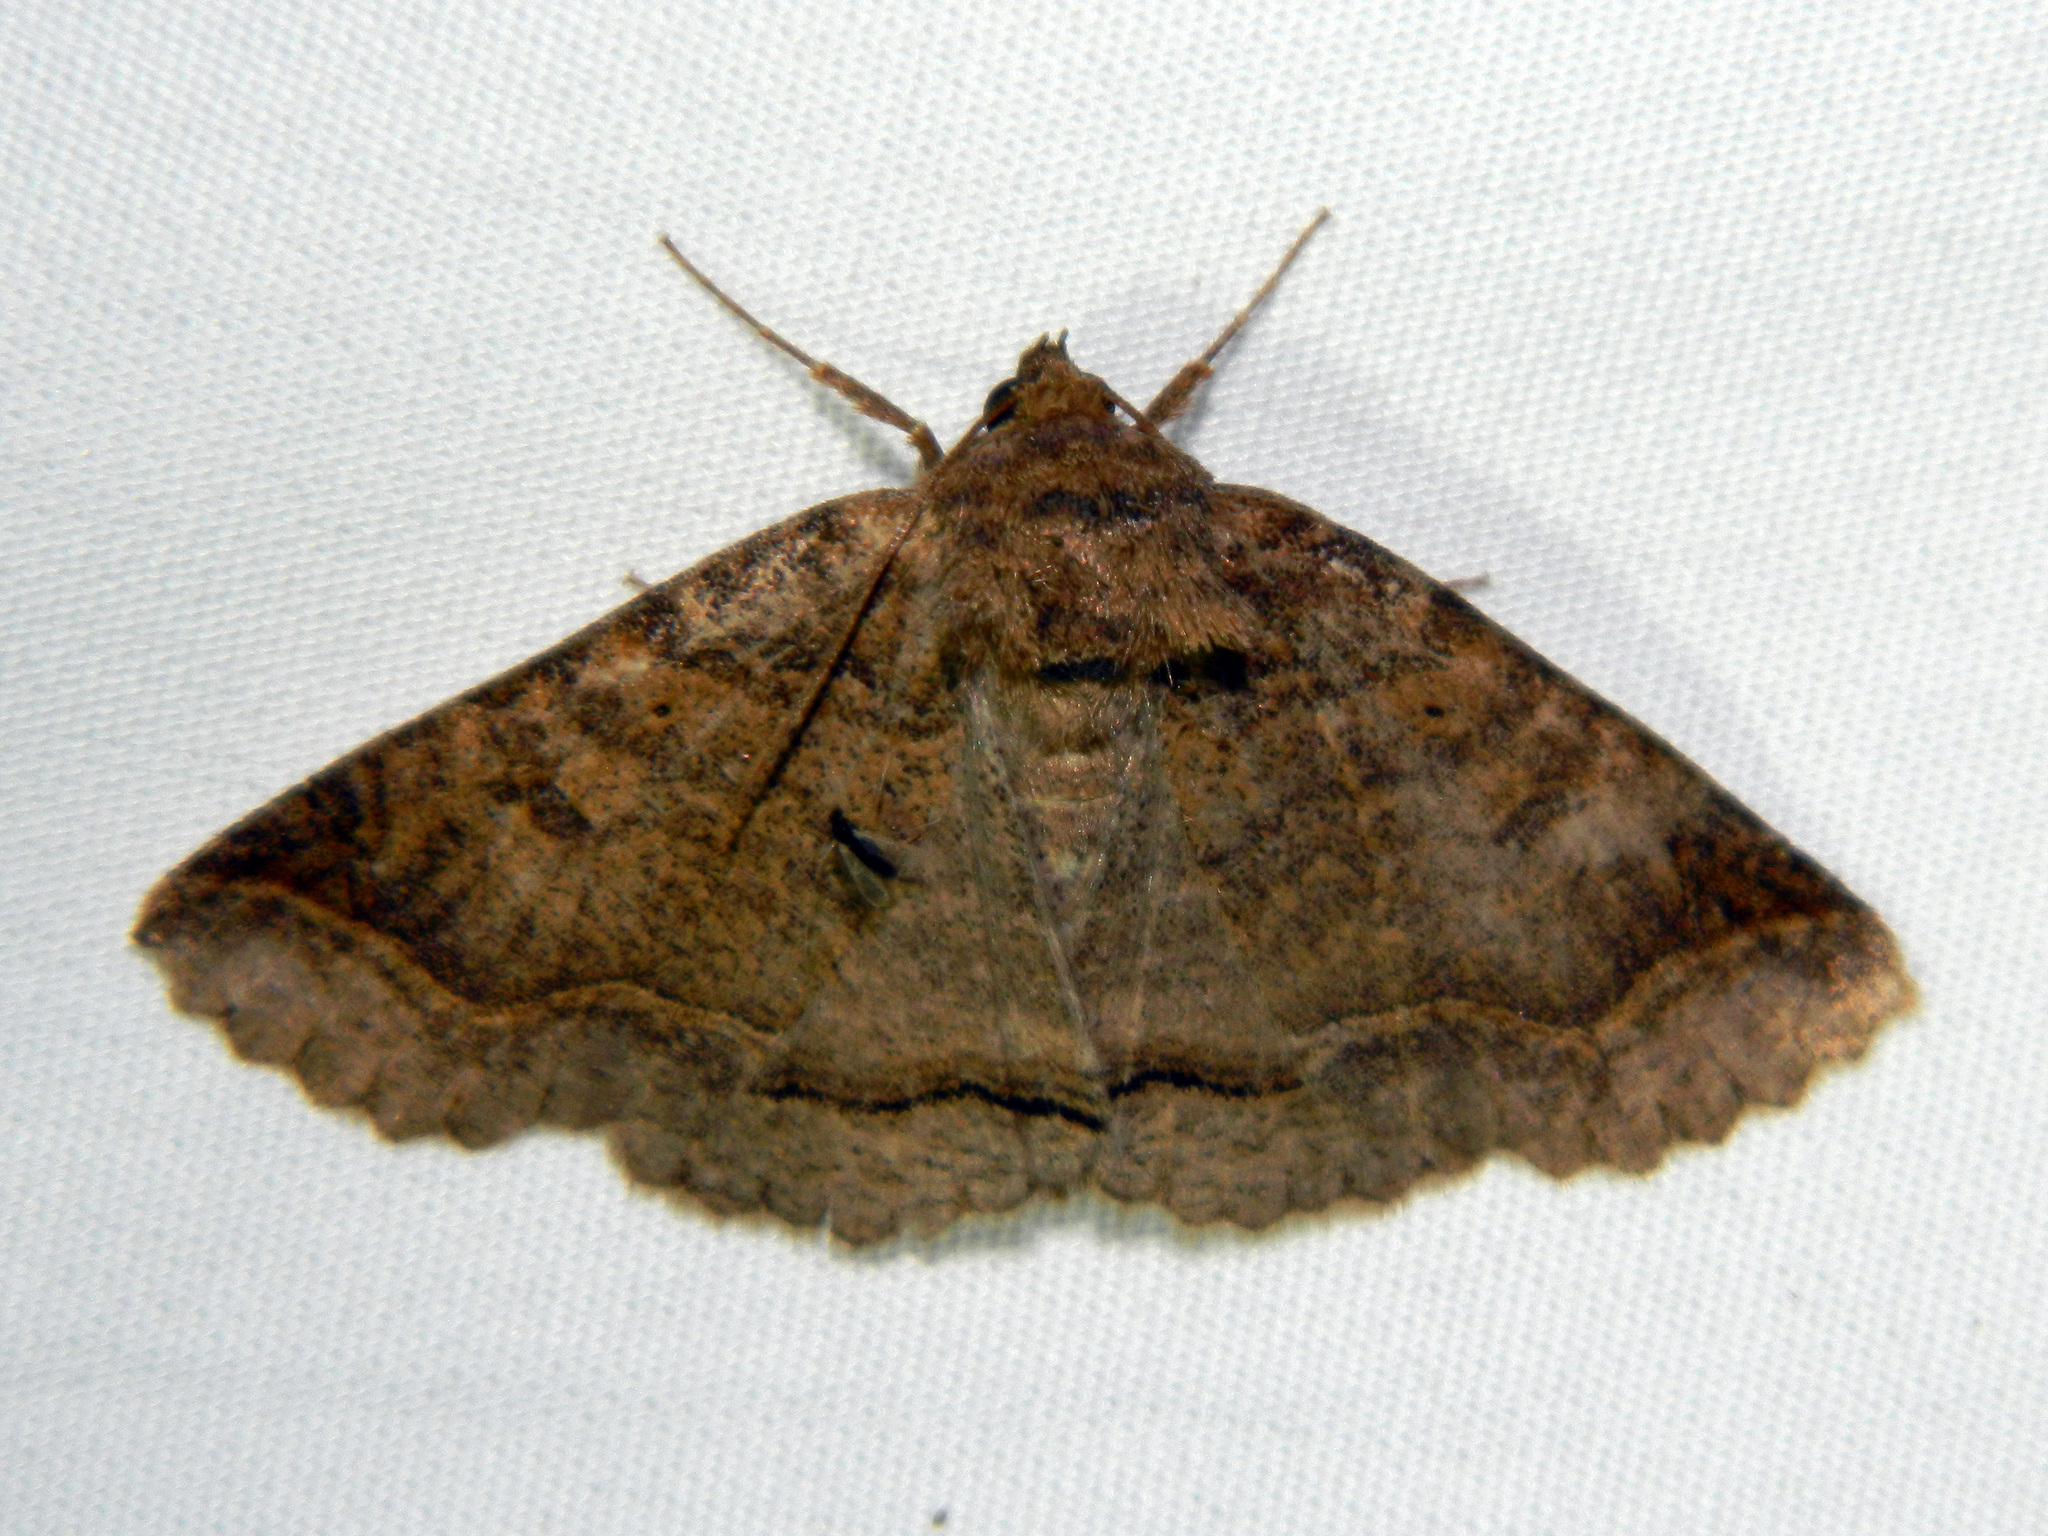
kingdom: Animalia
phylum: Arthropoda
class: Insecta
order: Lepidoptera
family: Erebidae
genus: Zale
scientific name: Zale unilineata
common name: One-lined zale moth
